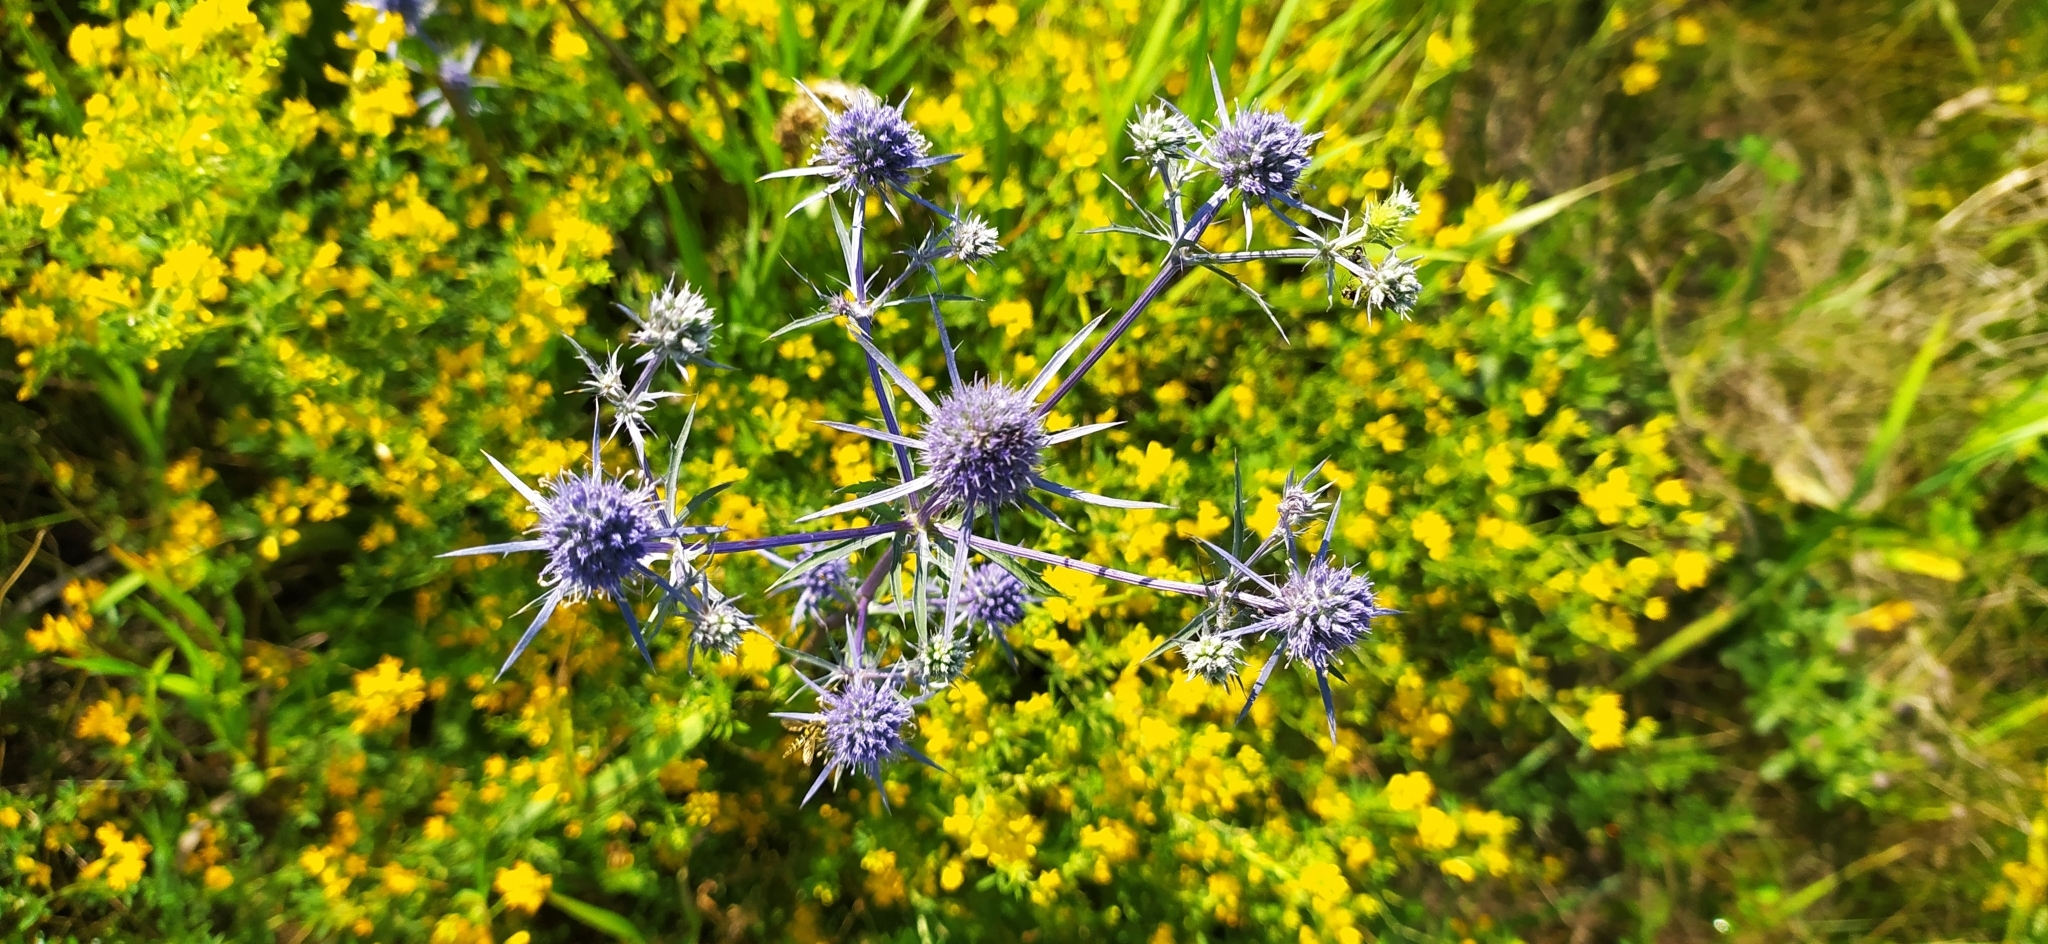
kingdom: Plantae
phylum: Tracheophyta
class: Magnoliopsida
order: Apiales
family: Apiaceae
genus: Eryngium
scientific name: Eryngium planum
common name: Blue eryngo
